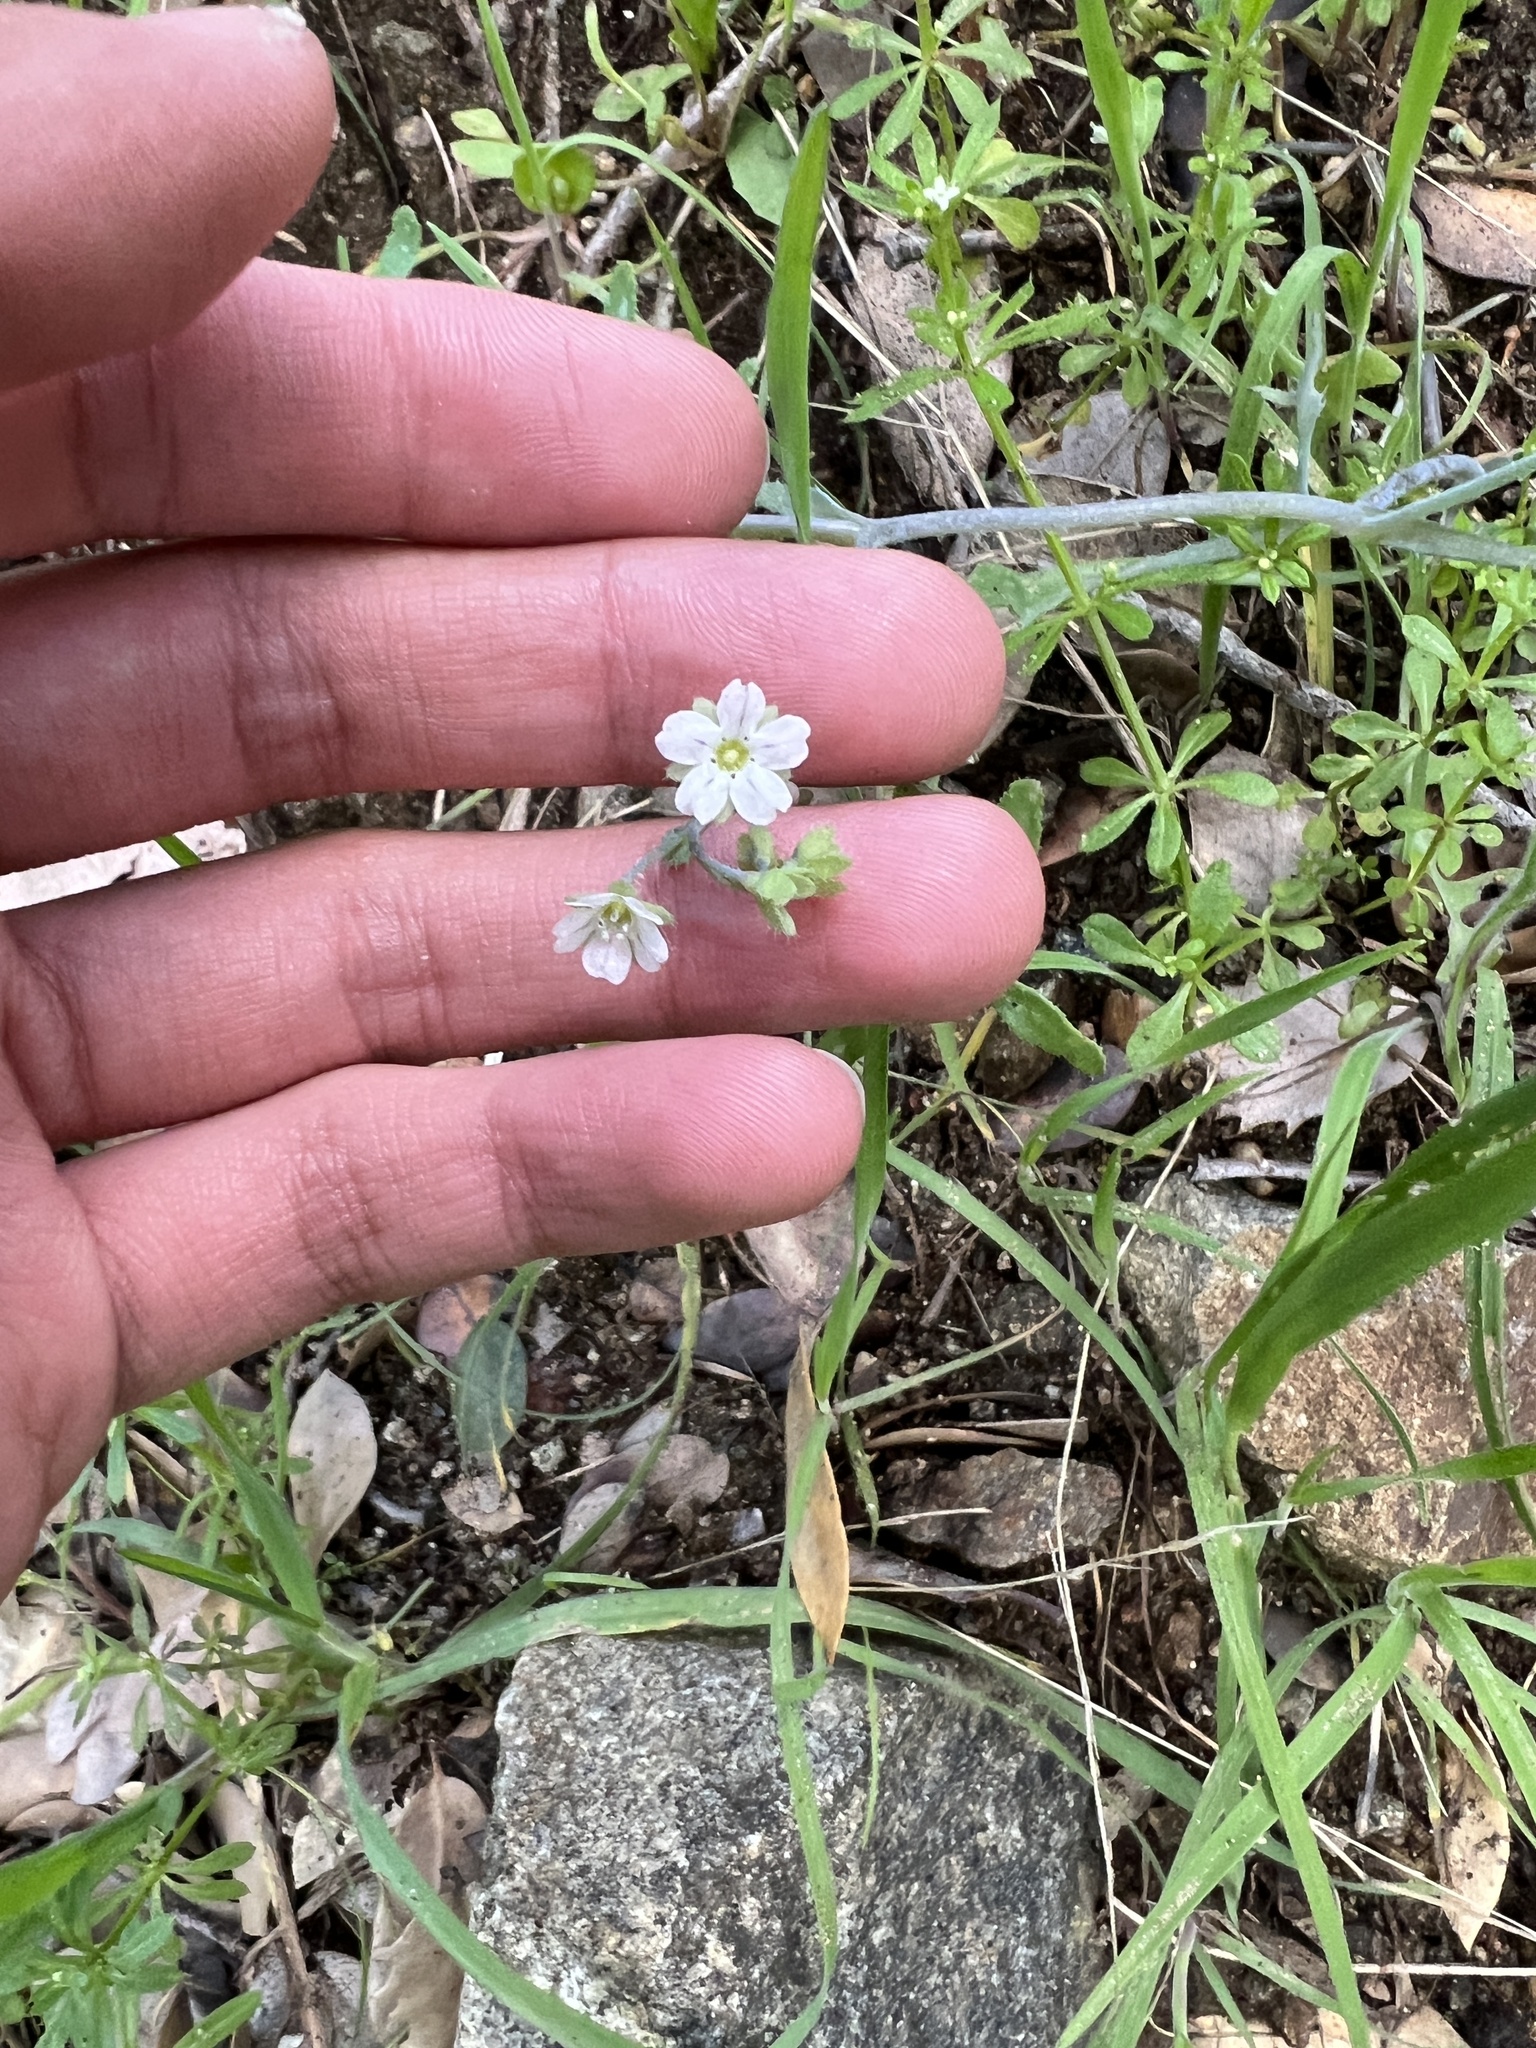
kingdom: Plantae
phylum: Tracheophyta
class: Magnoliopsida
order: Boraginales
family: Hydrophyllaceae
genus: Pholistoma
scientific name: Pholistoma membranaceum
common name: White fiesta-flower
